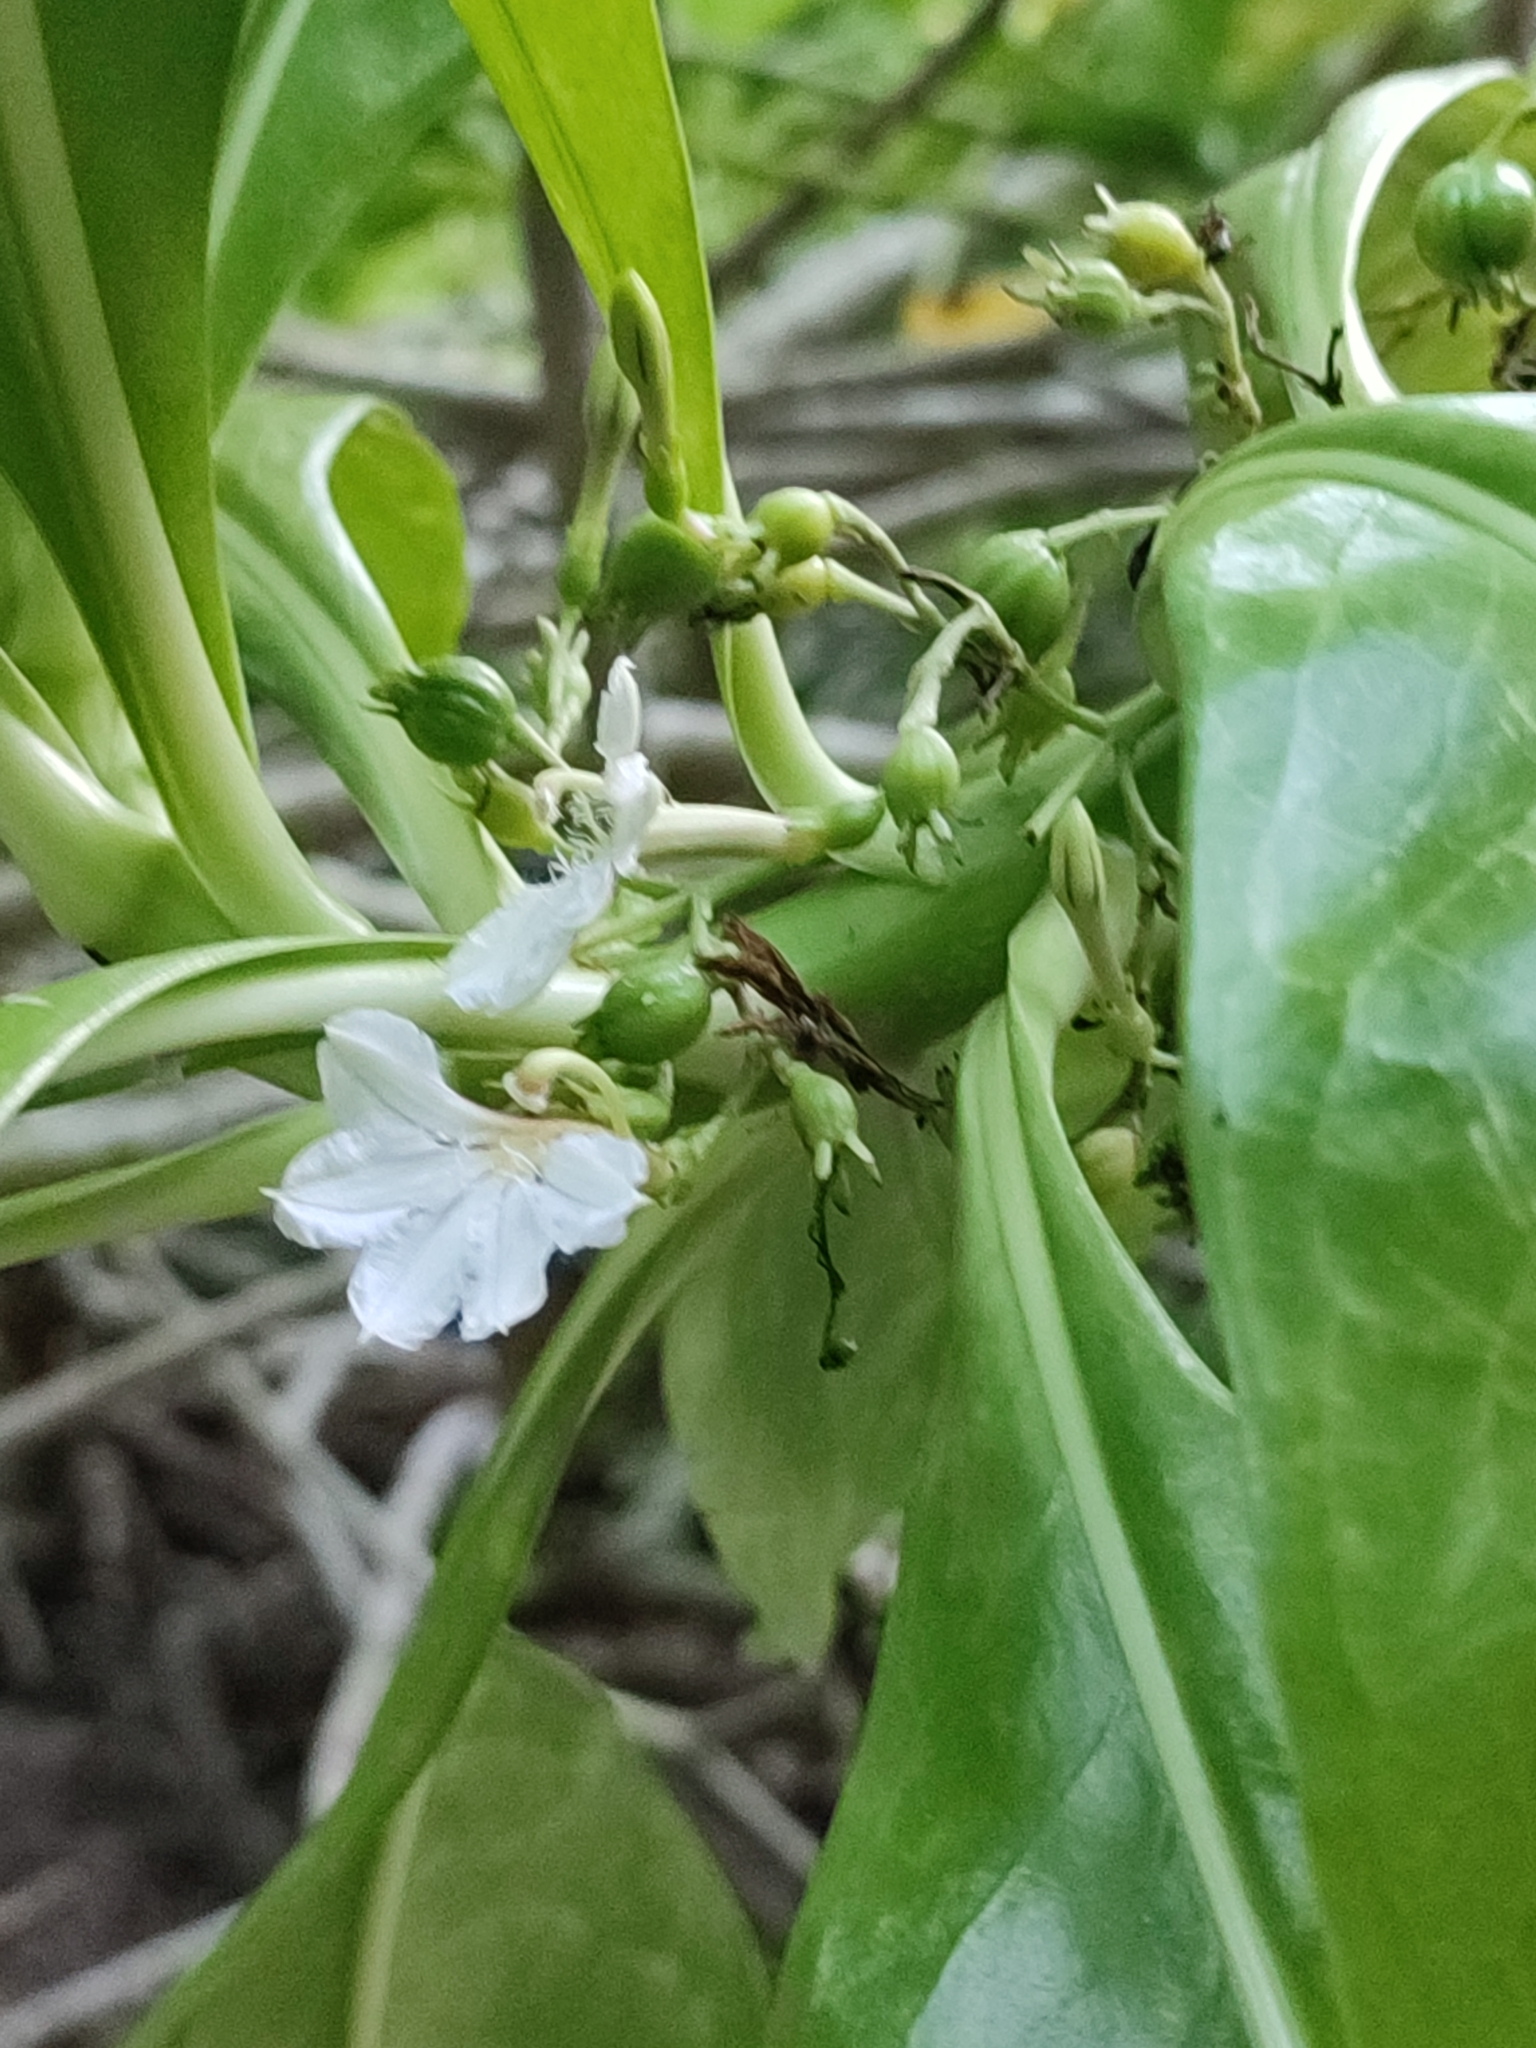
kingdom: Plantae
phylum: Tracheophyta
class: Magnoliopsida
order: Asterales
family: Goodeniaceae
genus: Scaevola
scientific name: Scaevola taccada
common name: Sea lettucetree
